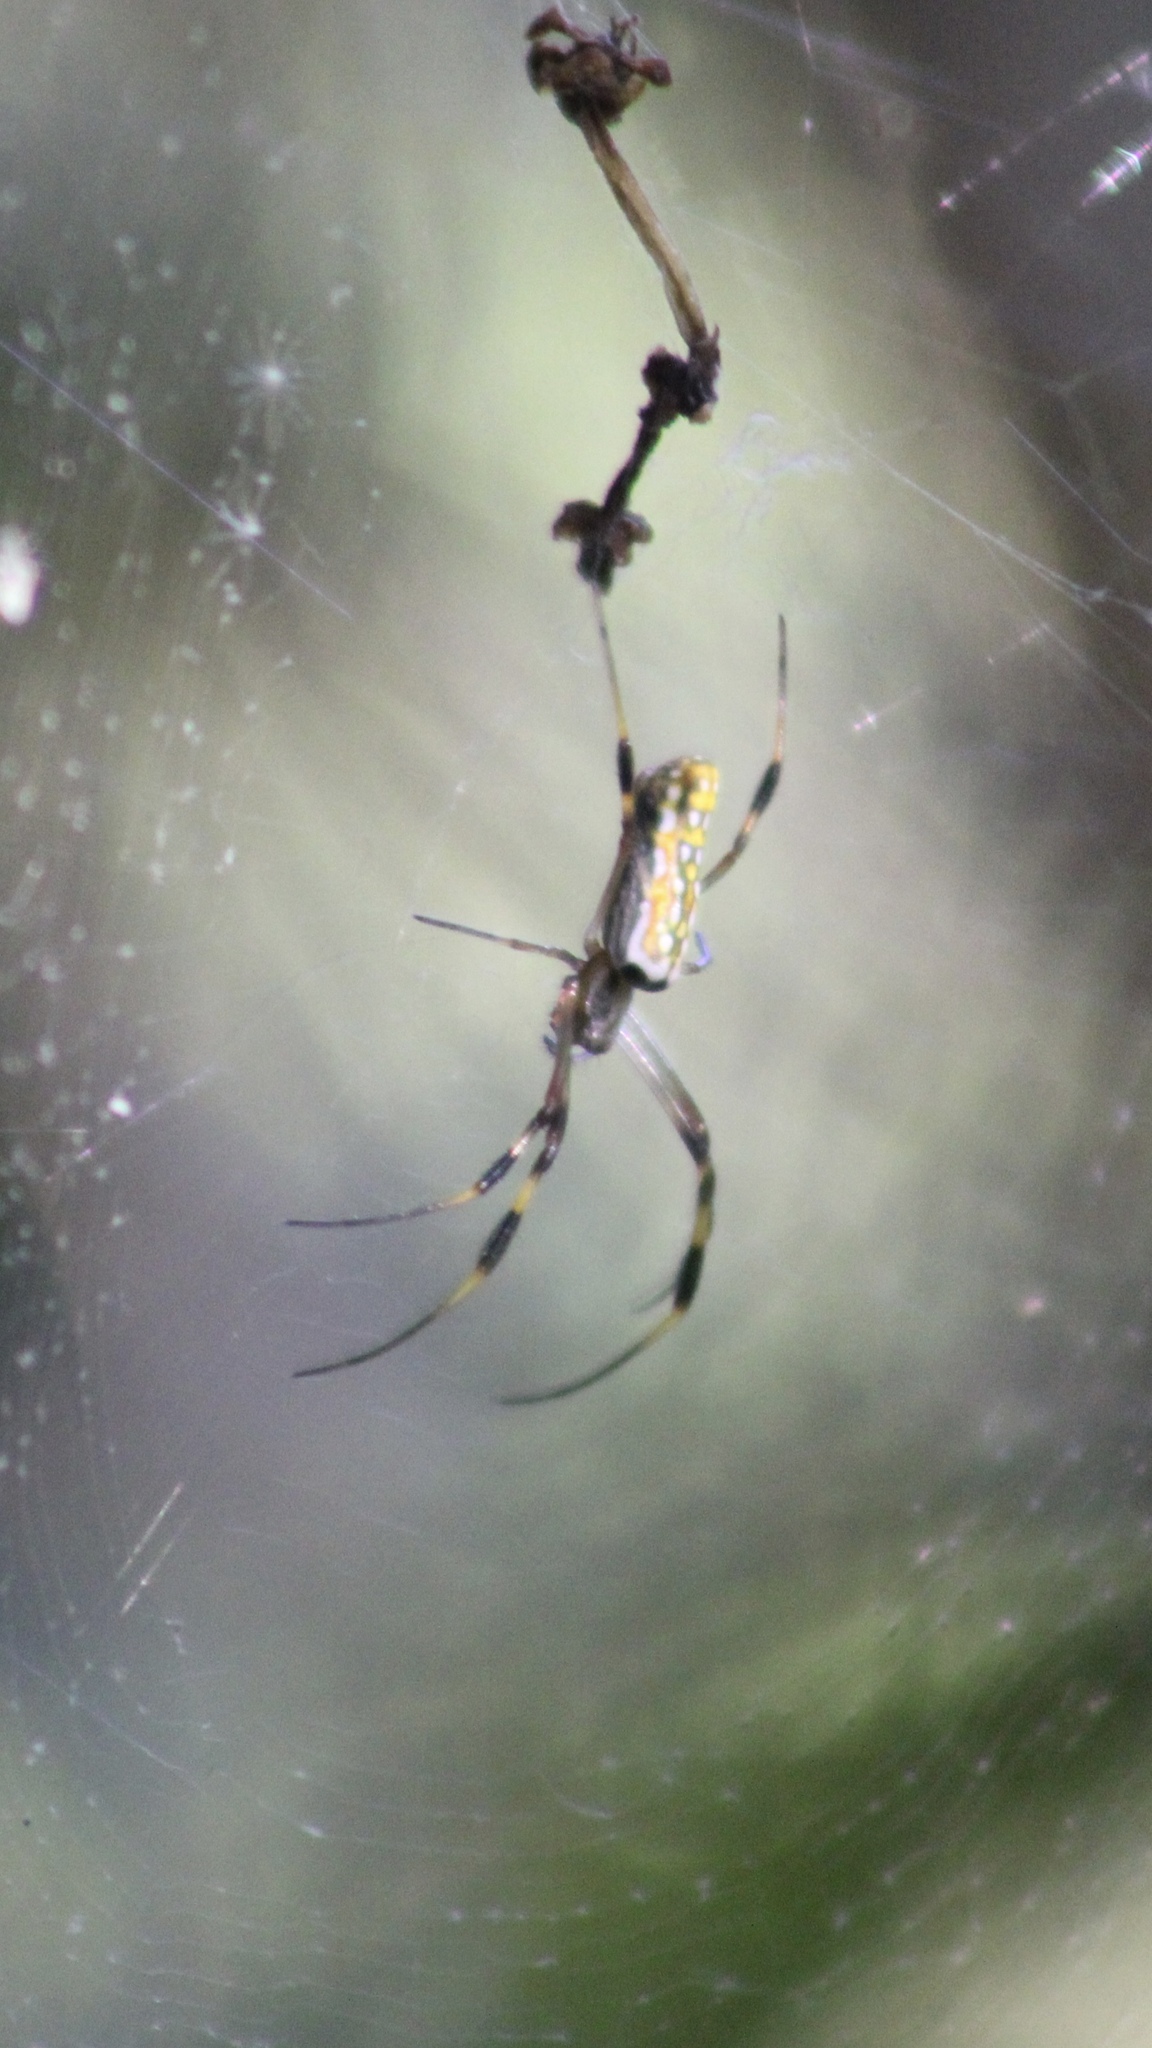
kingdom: Animalia
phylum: Arthropoda
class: Arachnida
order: Araneae
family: Araneidae
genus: Trichonephila
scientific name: Trichonephila clavipes
